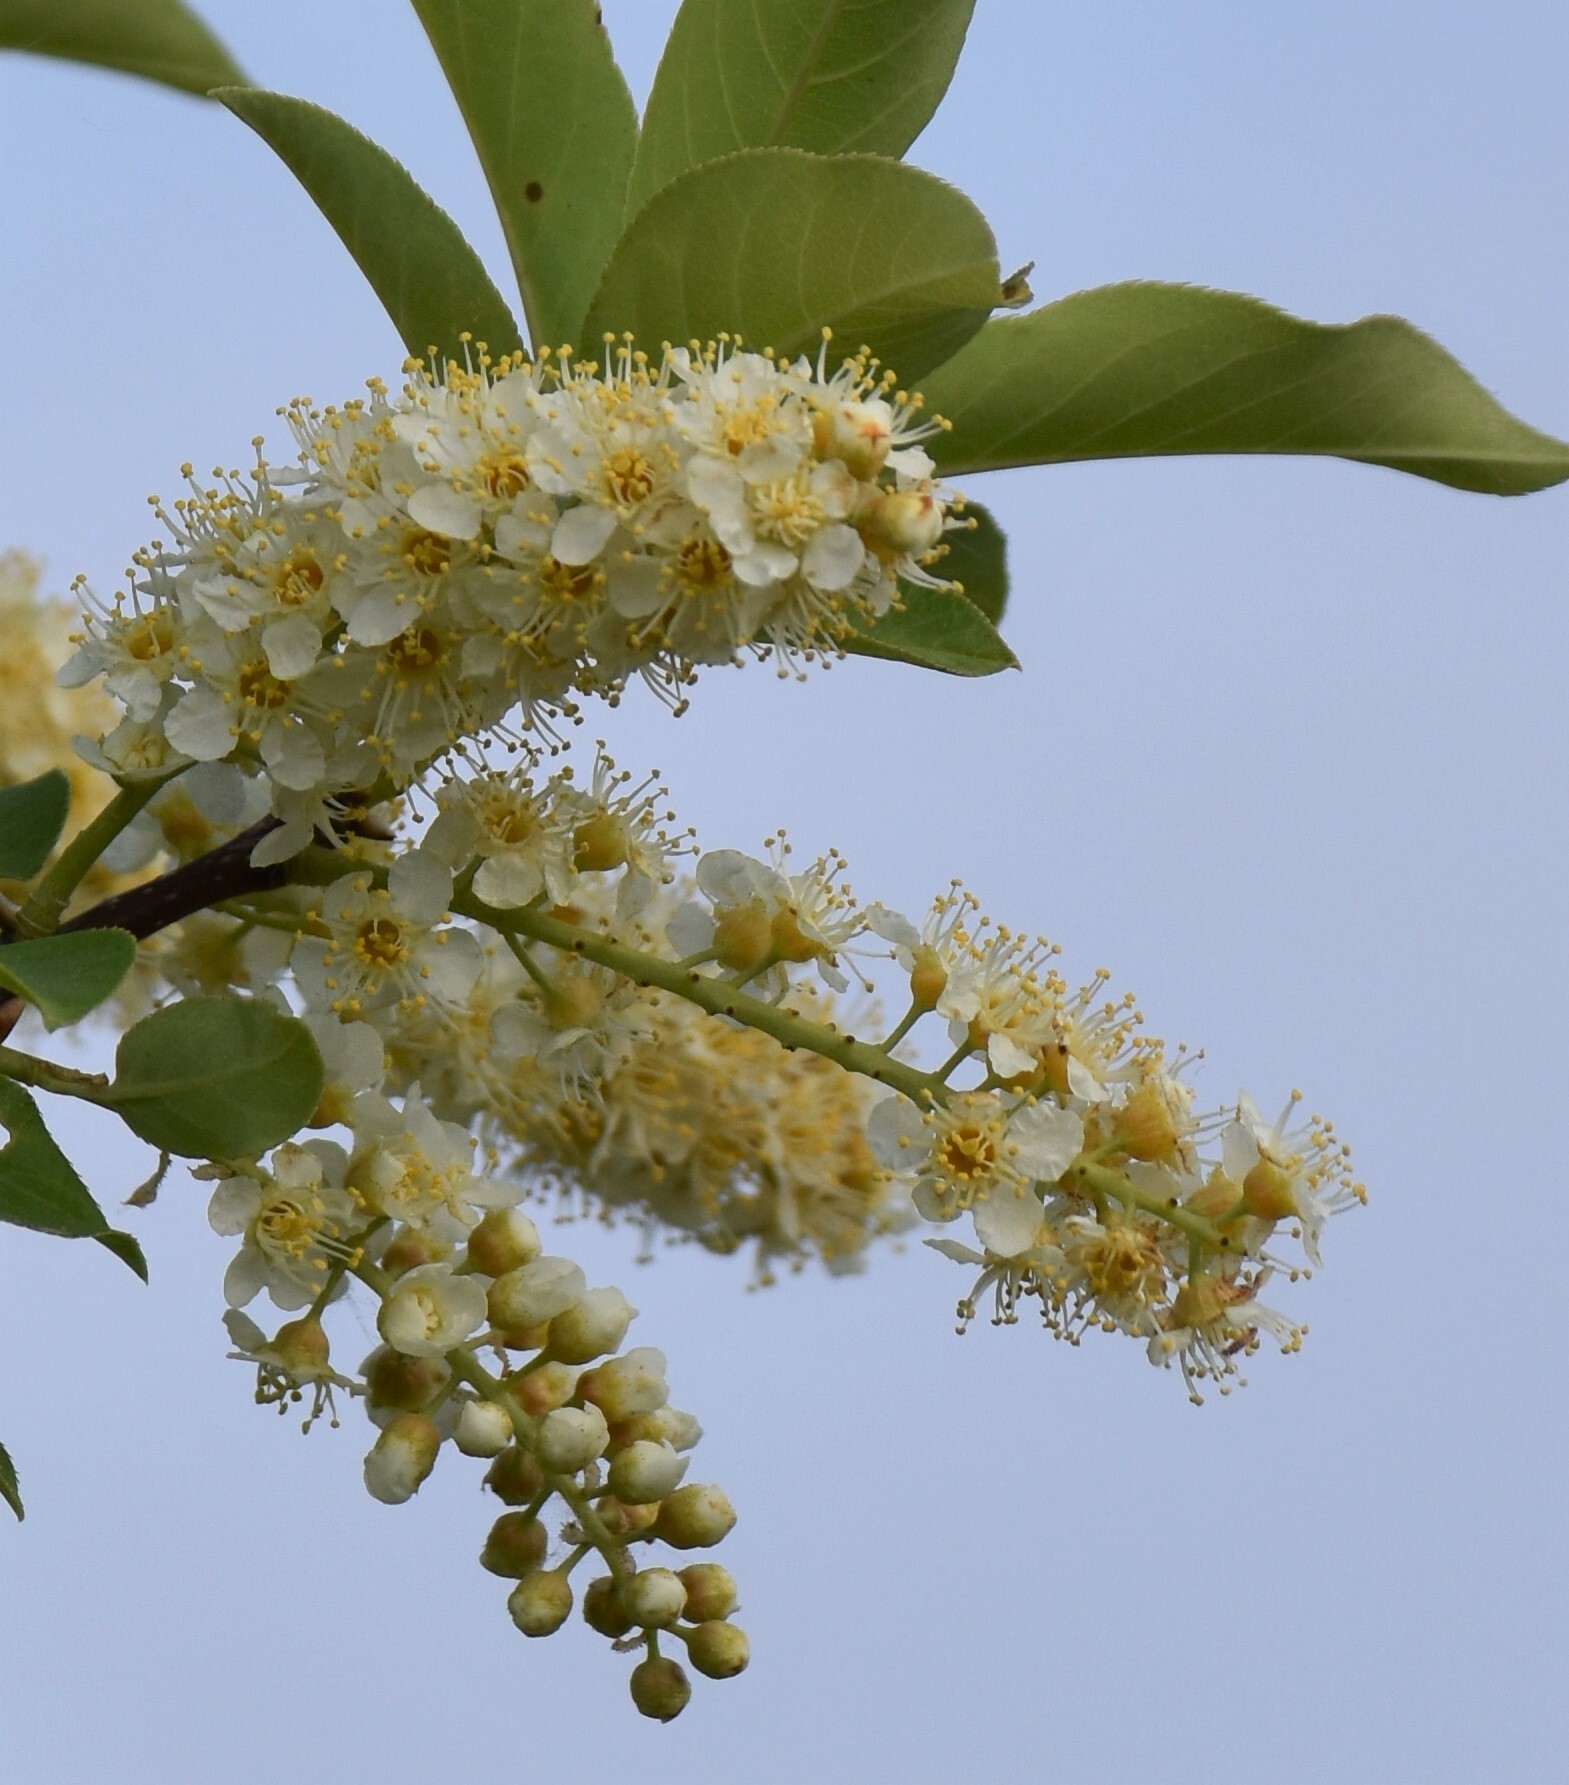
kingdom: Plantae
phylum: Tracheophyta
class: Magnoliopsida
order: Rosales
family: Rosaceae
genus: Prunus
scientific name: Prunus virginiana
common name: Chokecherry
